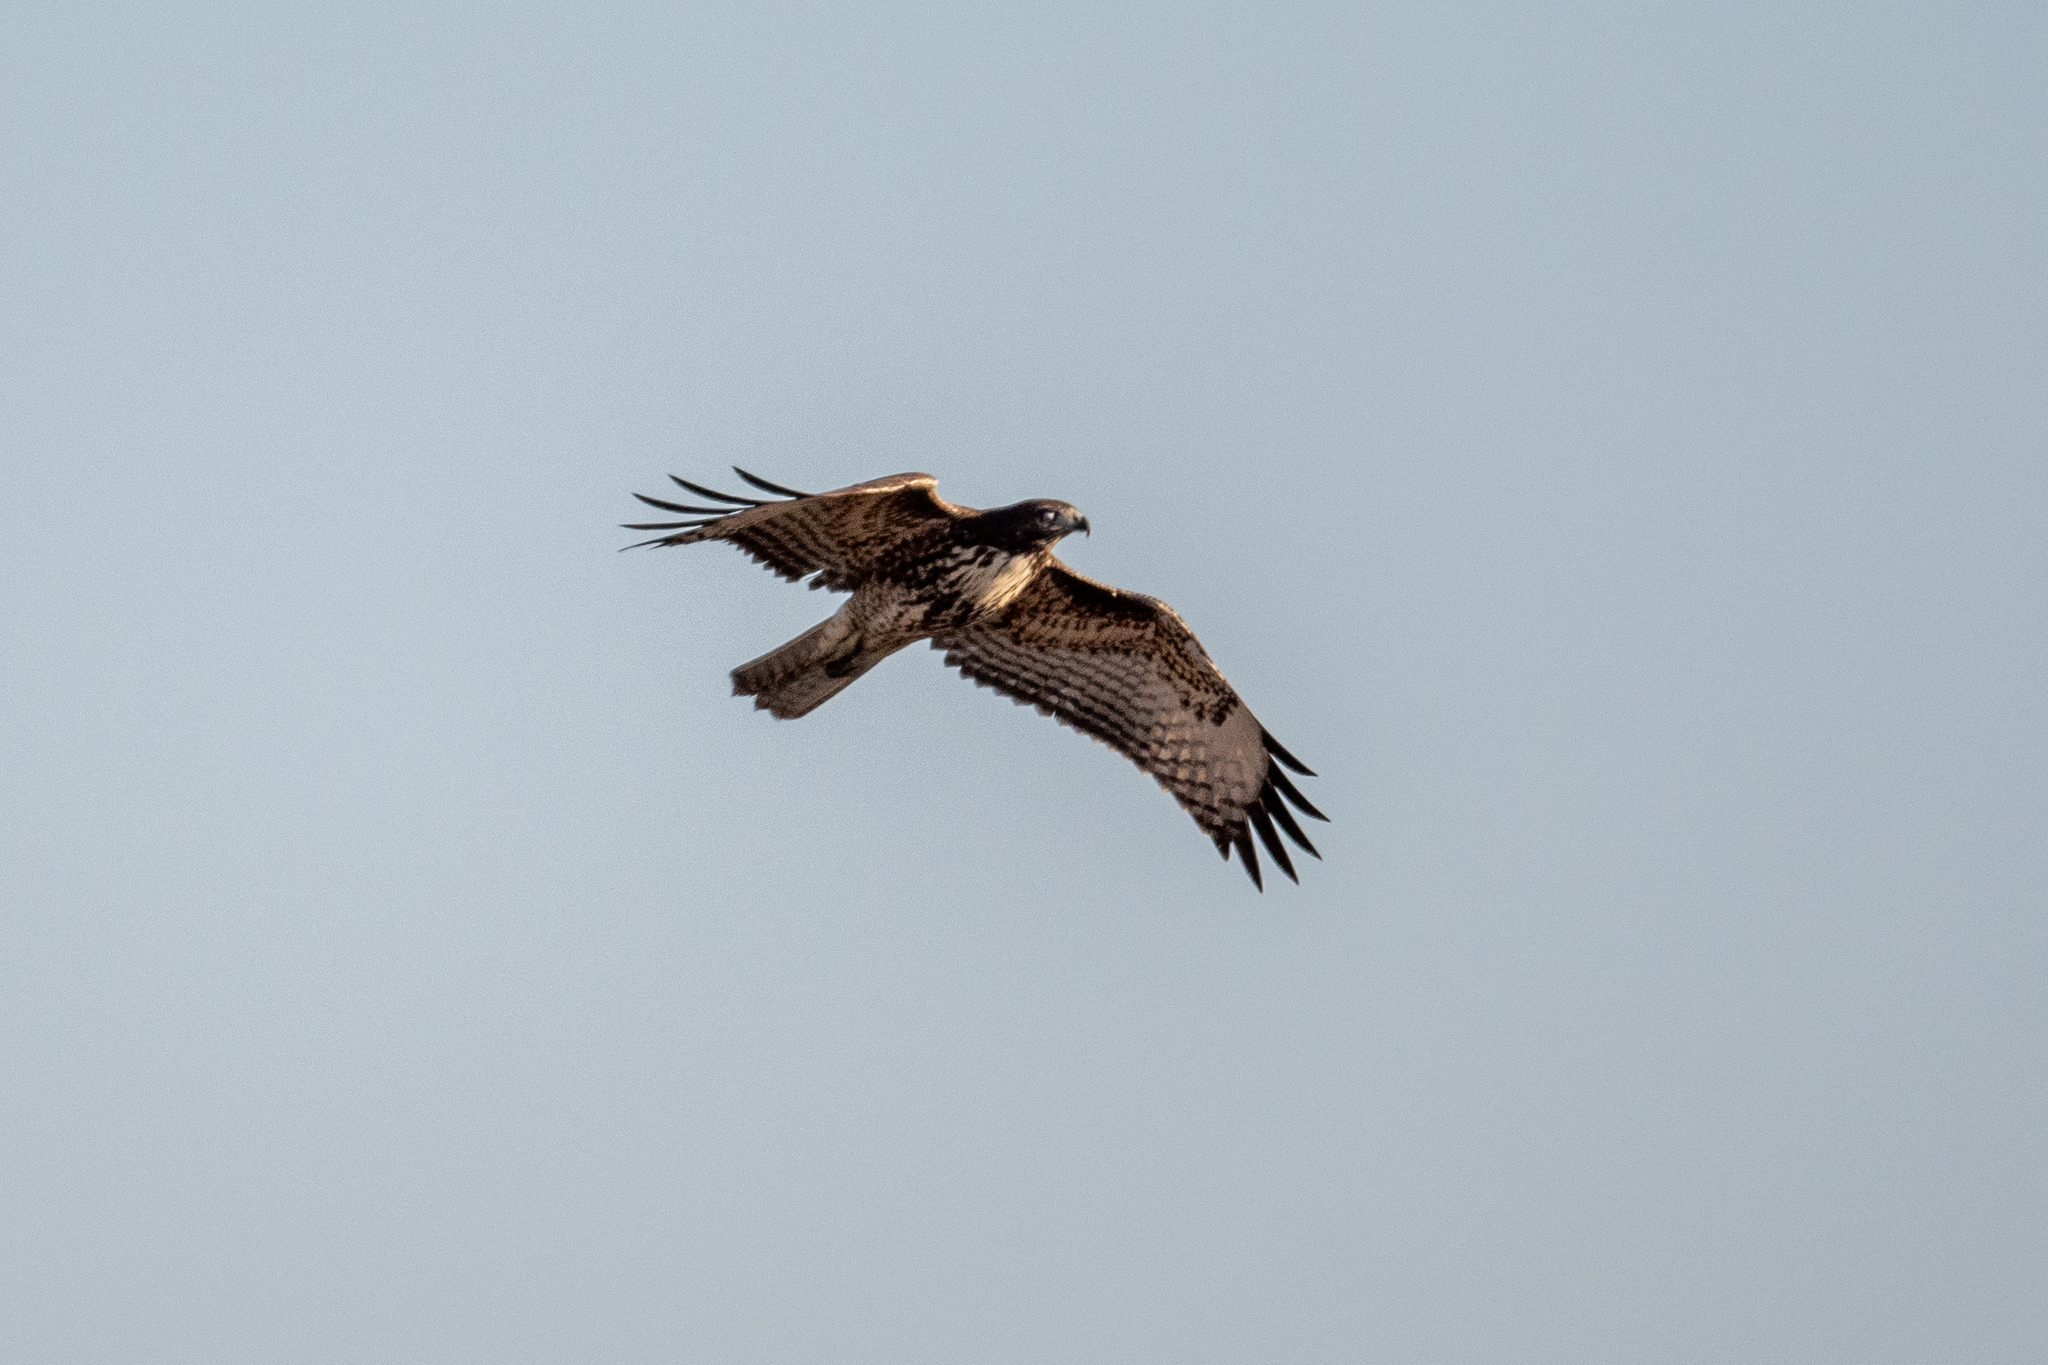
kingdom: Animalia
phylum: Chordata
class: Aves
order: Accipitriformes
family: Accipitridae
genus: Buteo
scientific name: Buteo jamaicensis
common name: Red-tailed hawk
